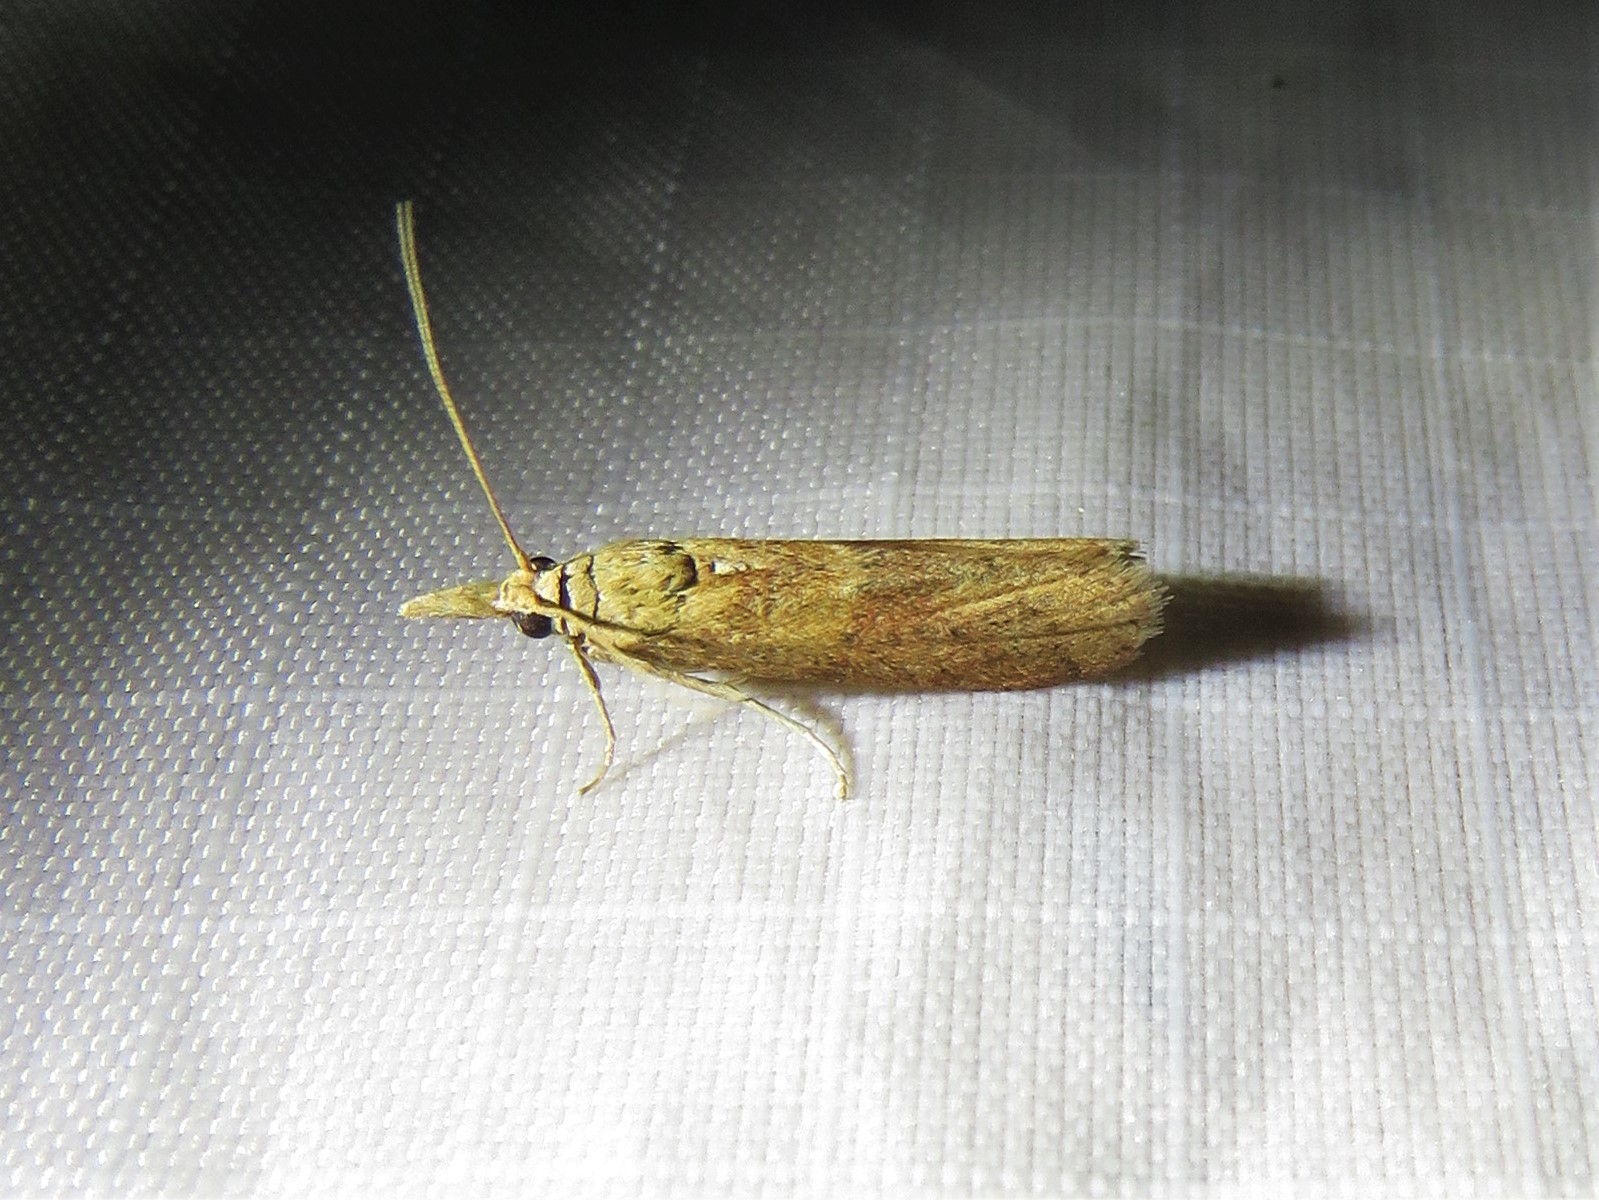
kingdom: Animalia
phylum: Arthropoda
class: Insecta
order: Lepidoptera
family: Pyralidae
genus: Macrorrhinia
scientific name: Macrorrhinia endonephele
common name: Alligator weed stemborer moth
